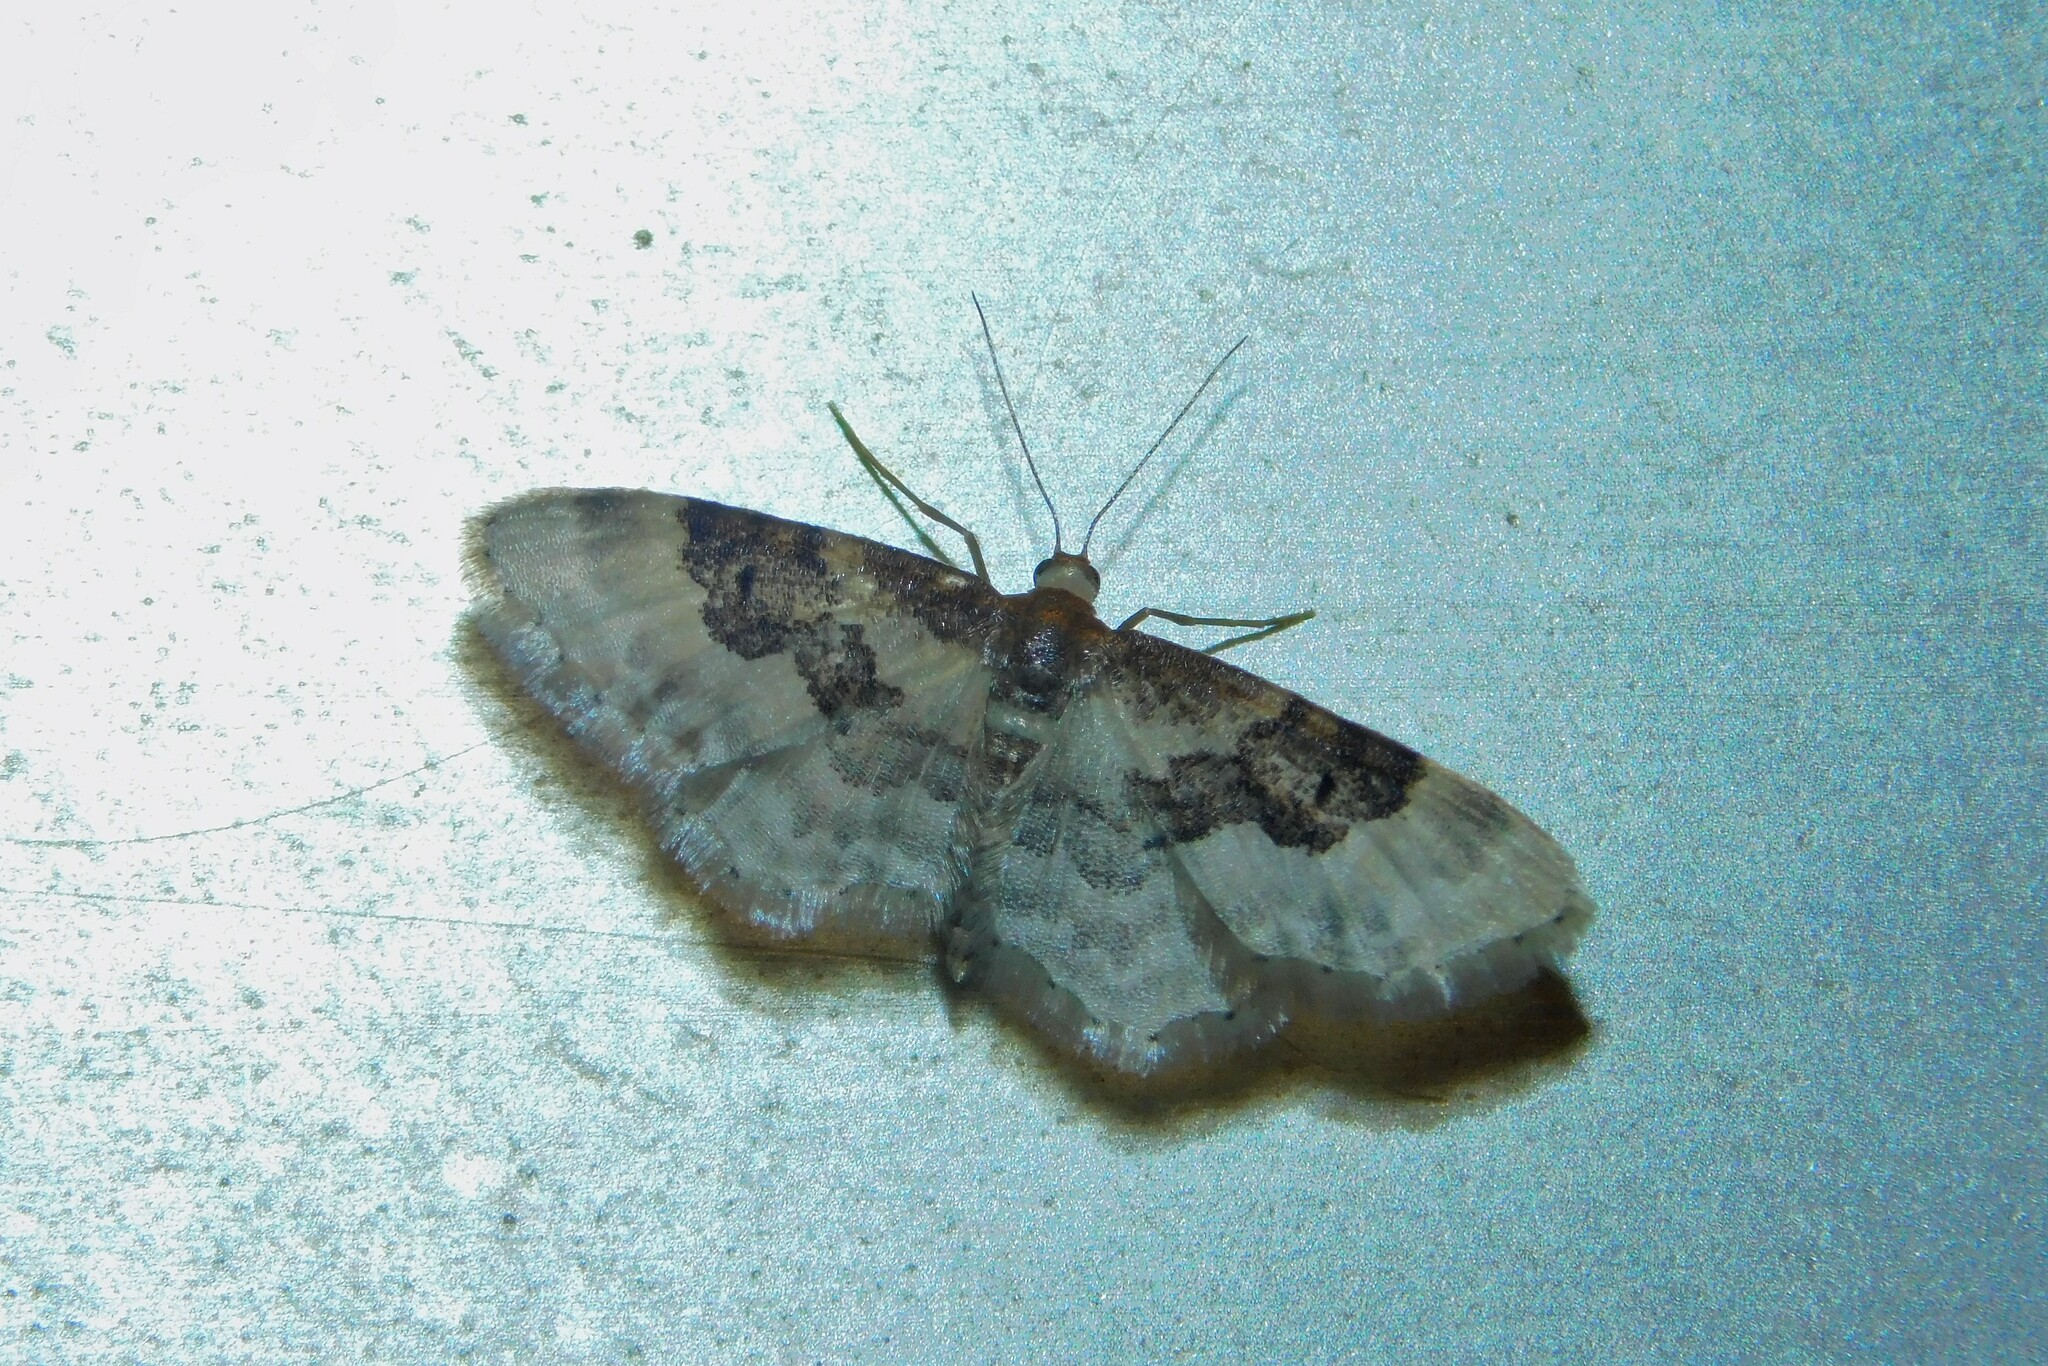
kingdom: Animalia
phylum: Arthropoda
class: Insecta
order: Lepidoptera
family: Geometridae
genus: Idaea
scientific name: Idaea rusticata
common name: Least carpet
